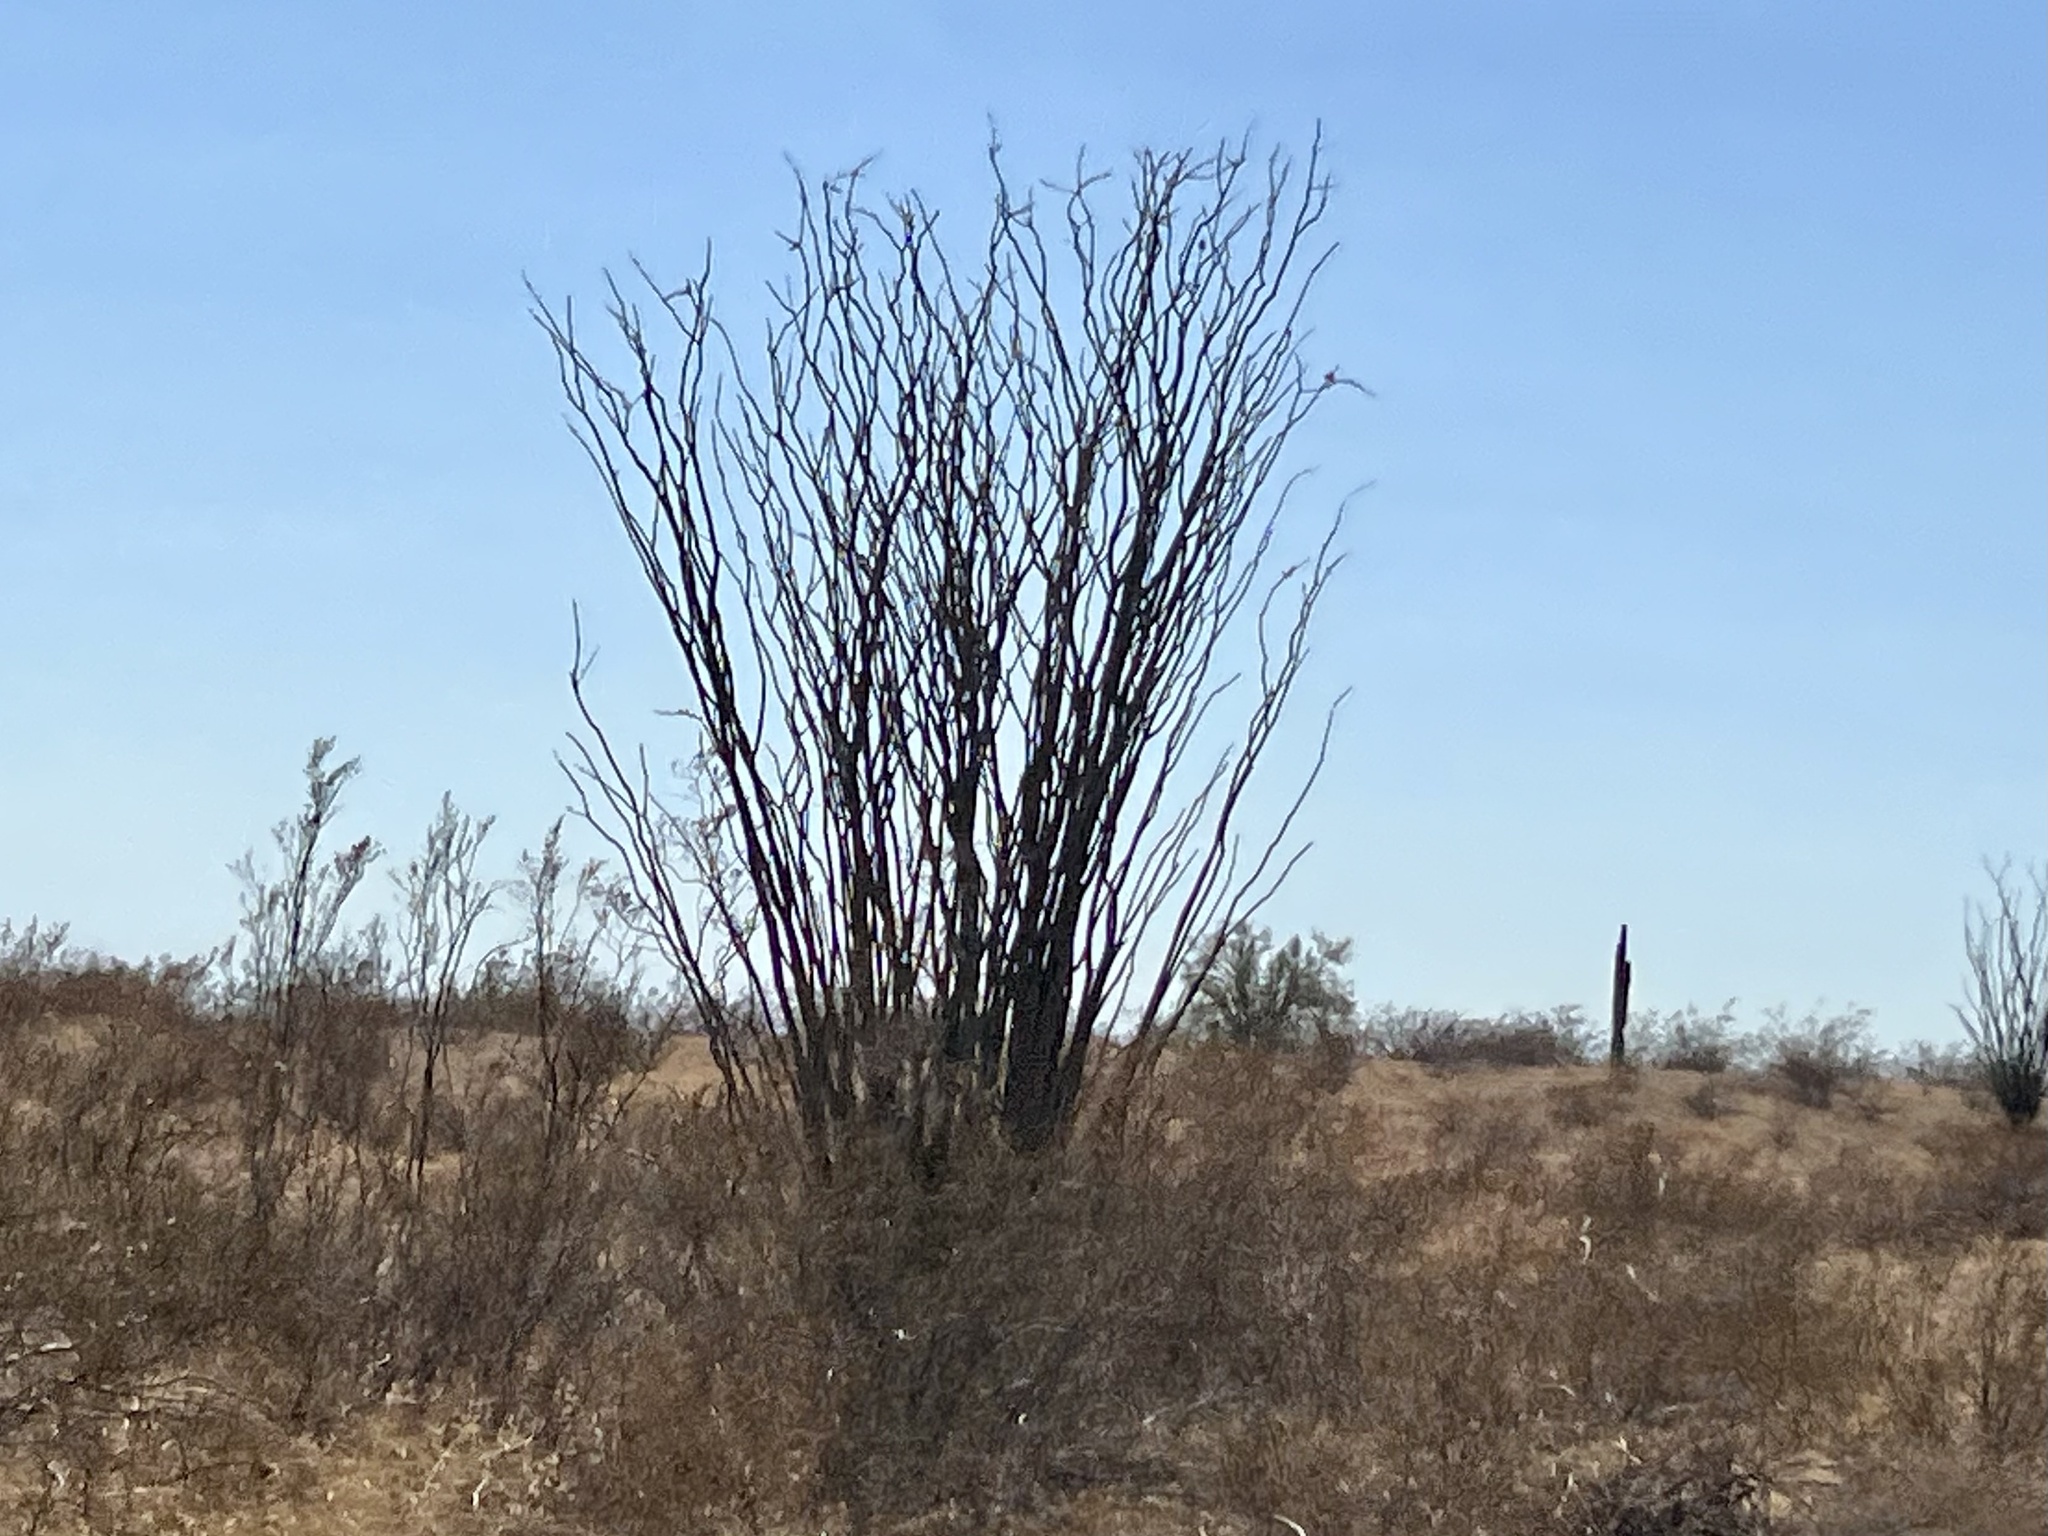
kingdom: Plantae
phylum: Tracheophyta
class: Magnoliopsida
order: Ericales
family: Fouquieriaceae
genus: Fouquieria
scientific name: Fouquieria splendens
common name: Vine-cactus
